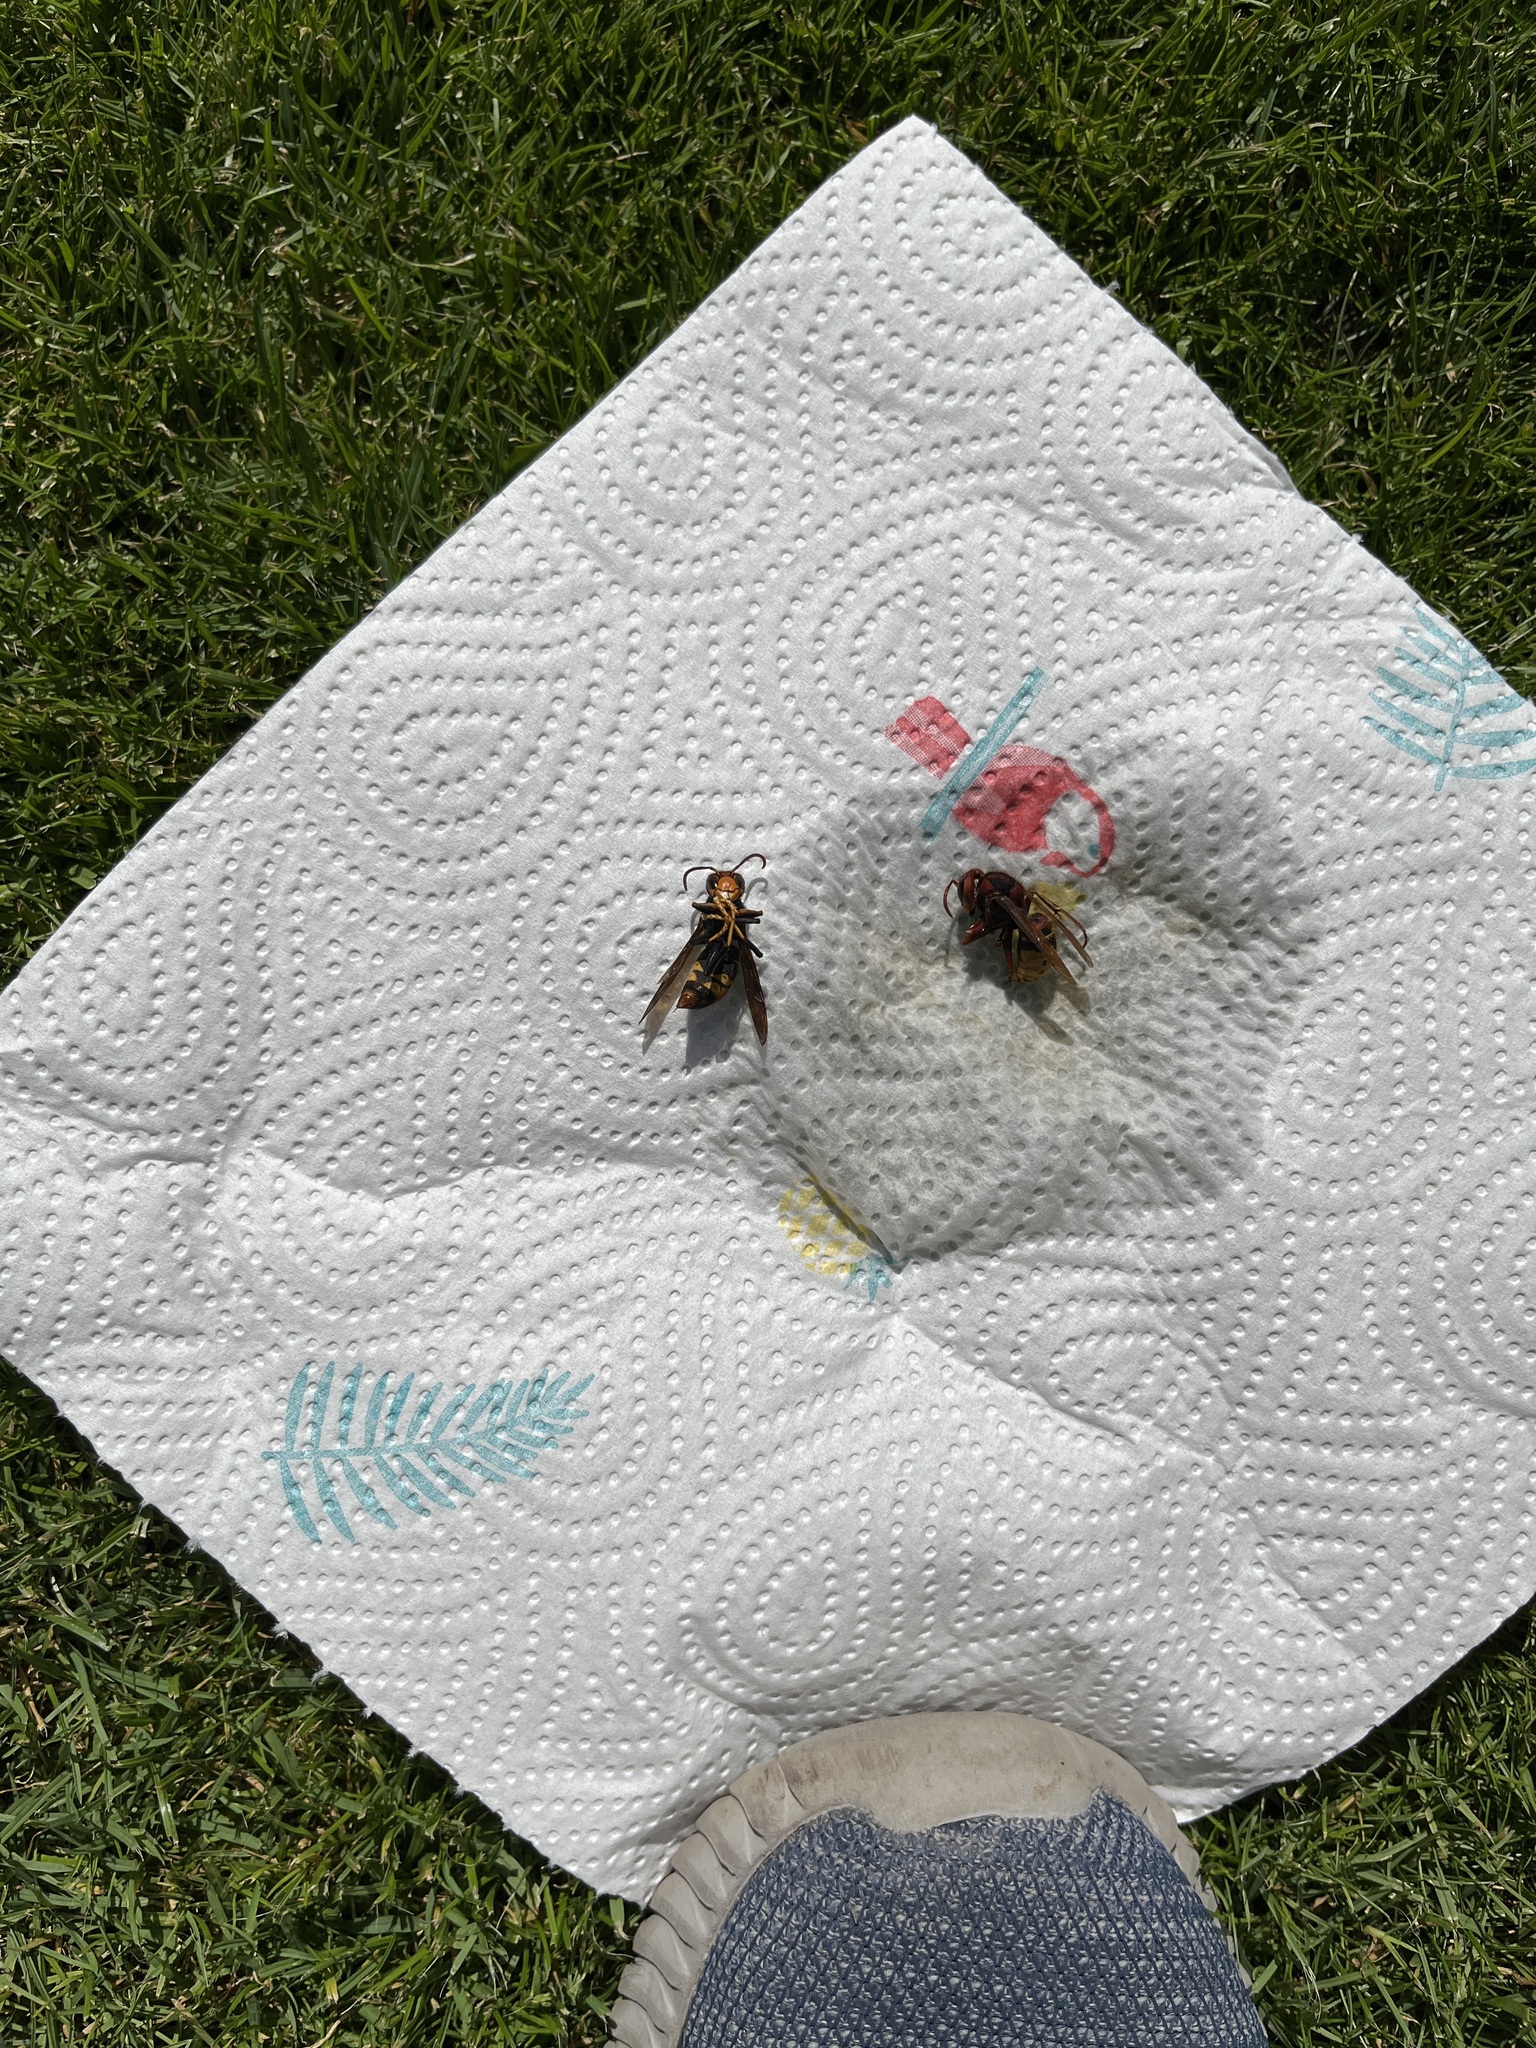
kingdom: Animalia
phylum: Arthropoda
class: Insecta
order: Hymenoptera
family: Vespidae
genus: Vespa
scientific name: Vespa velutina
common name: Asian hornet
